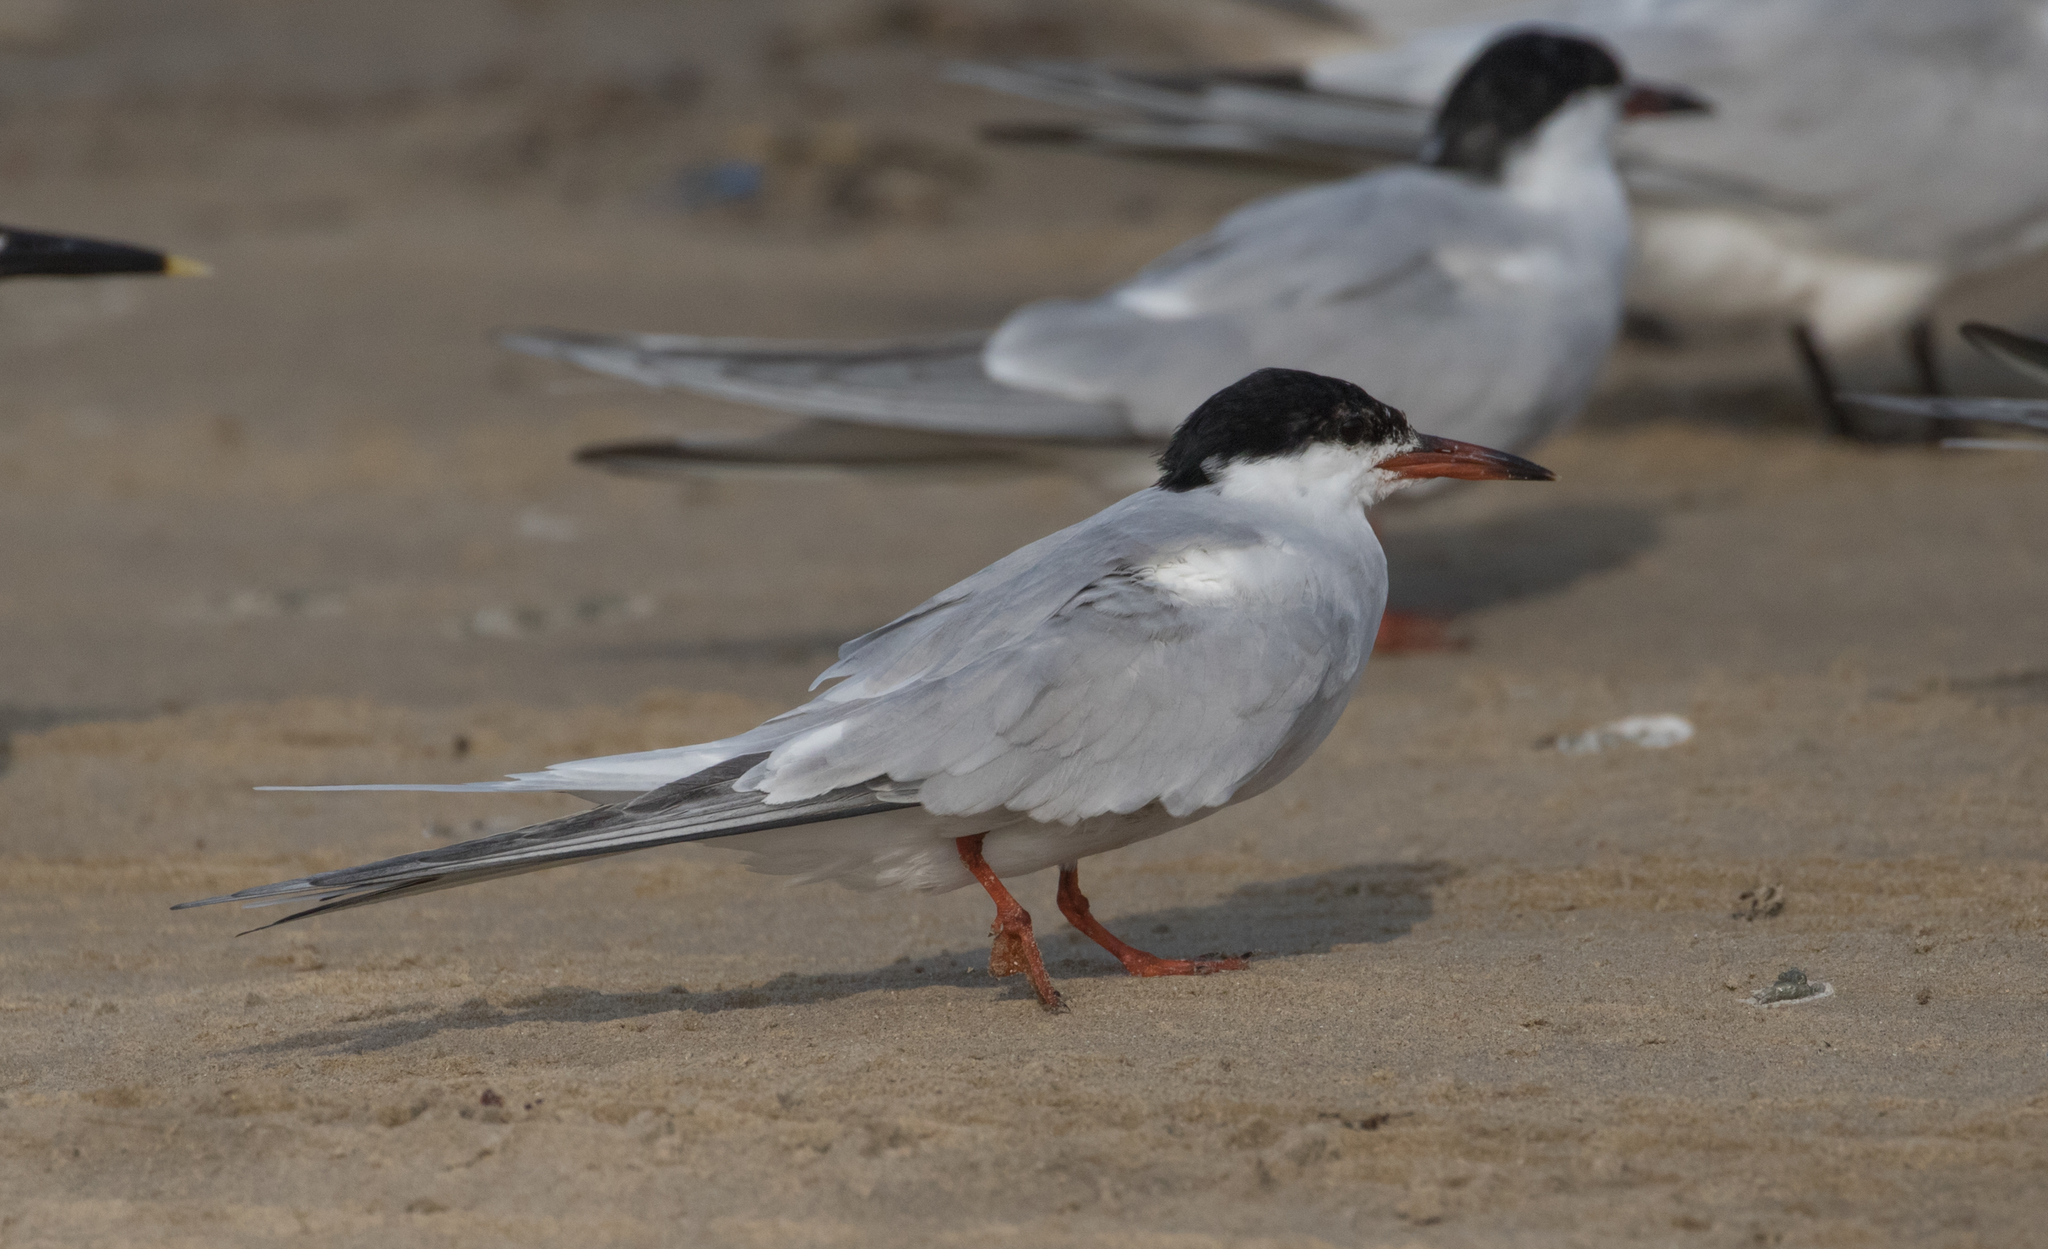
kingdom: Animalia
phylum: Chordata
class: Aves
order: Charadriiformes
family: Laridae
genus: Sterna
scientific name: Sterna hirundo
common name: Common tern
